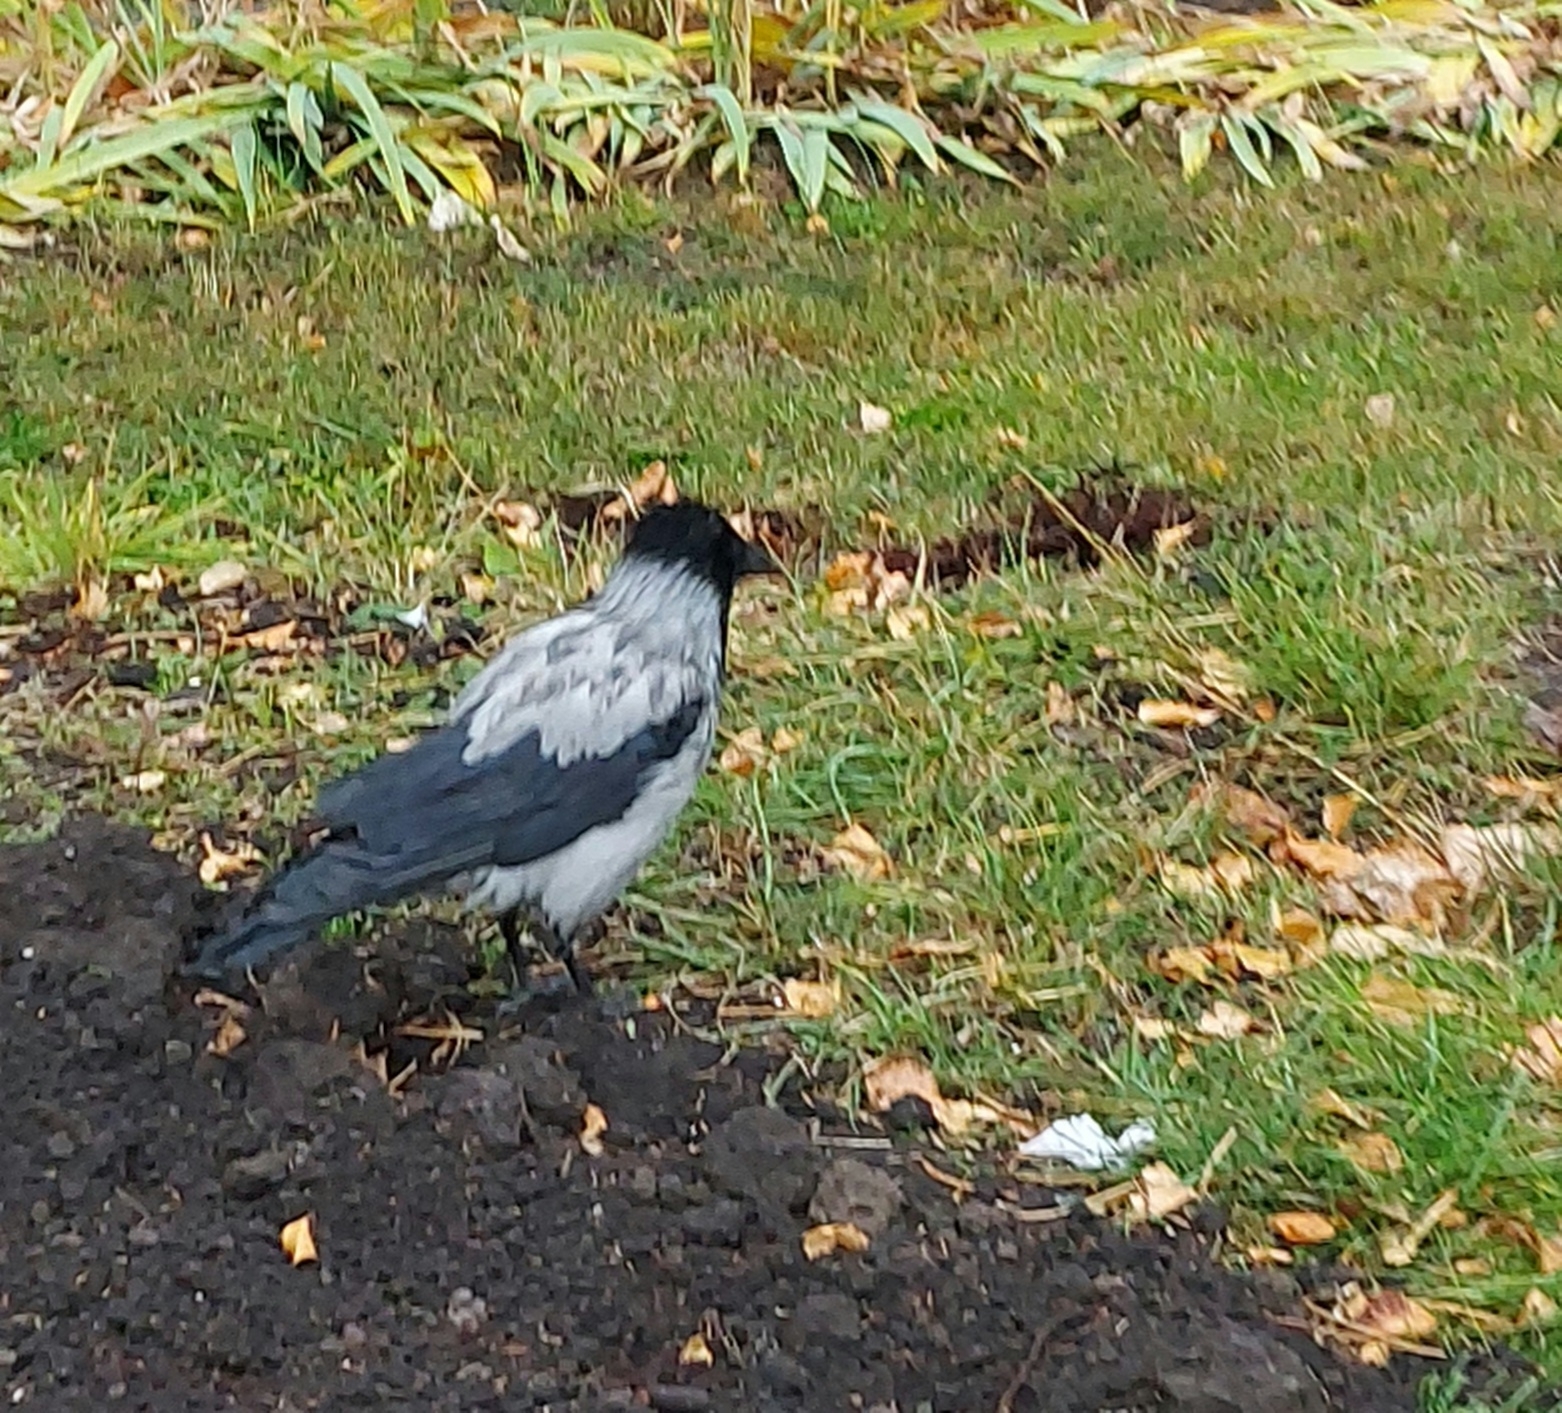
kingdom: Animalia
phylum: Chordata
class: Aves
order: Passeriformes
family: Corvidae
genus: Corvus
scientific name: Corvus cornix
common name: Hooded crow
